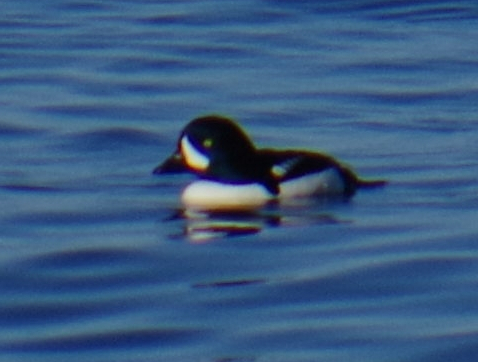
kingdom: Animalia
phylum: Chordata
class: Aves
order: Anseriformes
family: Anatidae
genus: Bucephala
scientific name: Bucephala islandica
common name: Barrow's goldeneye
